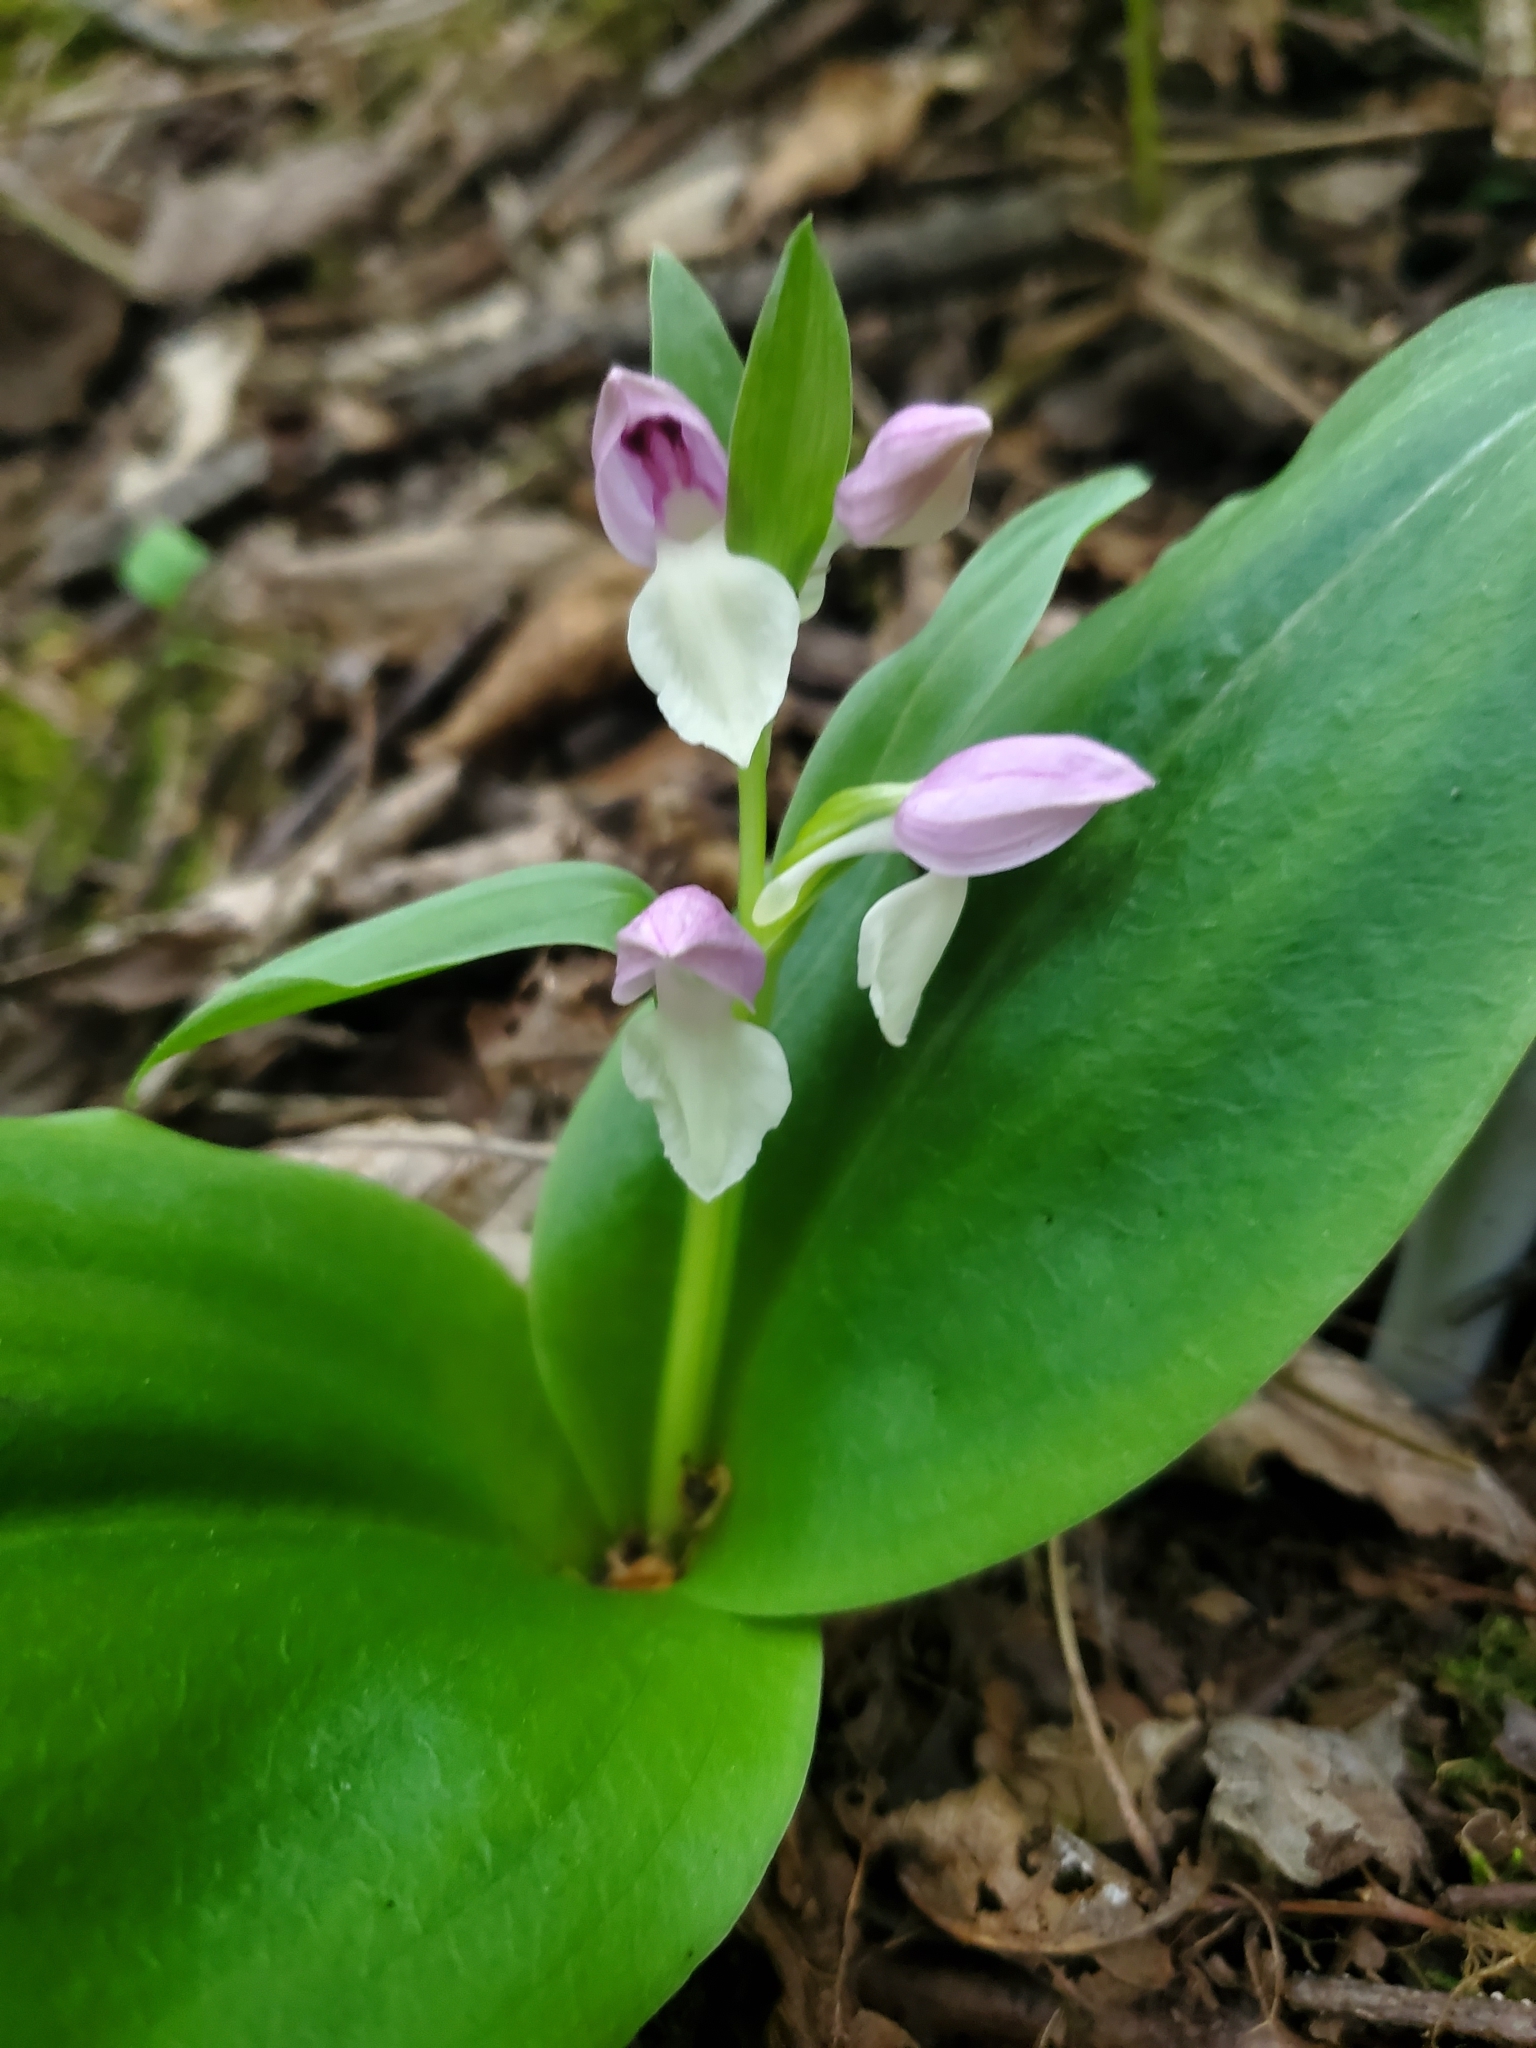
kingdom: Plantae
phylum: Tracheophyta
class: Liliopsida
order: Asparagales
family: Orchidaceae
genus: Galearis
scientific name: Galearis spectabilis
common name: Purple-hooded orchis
